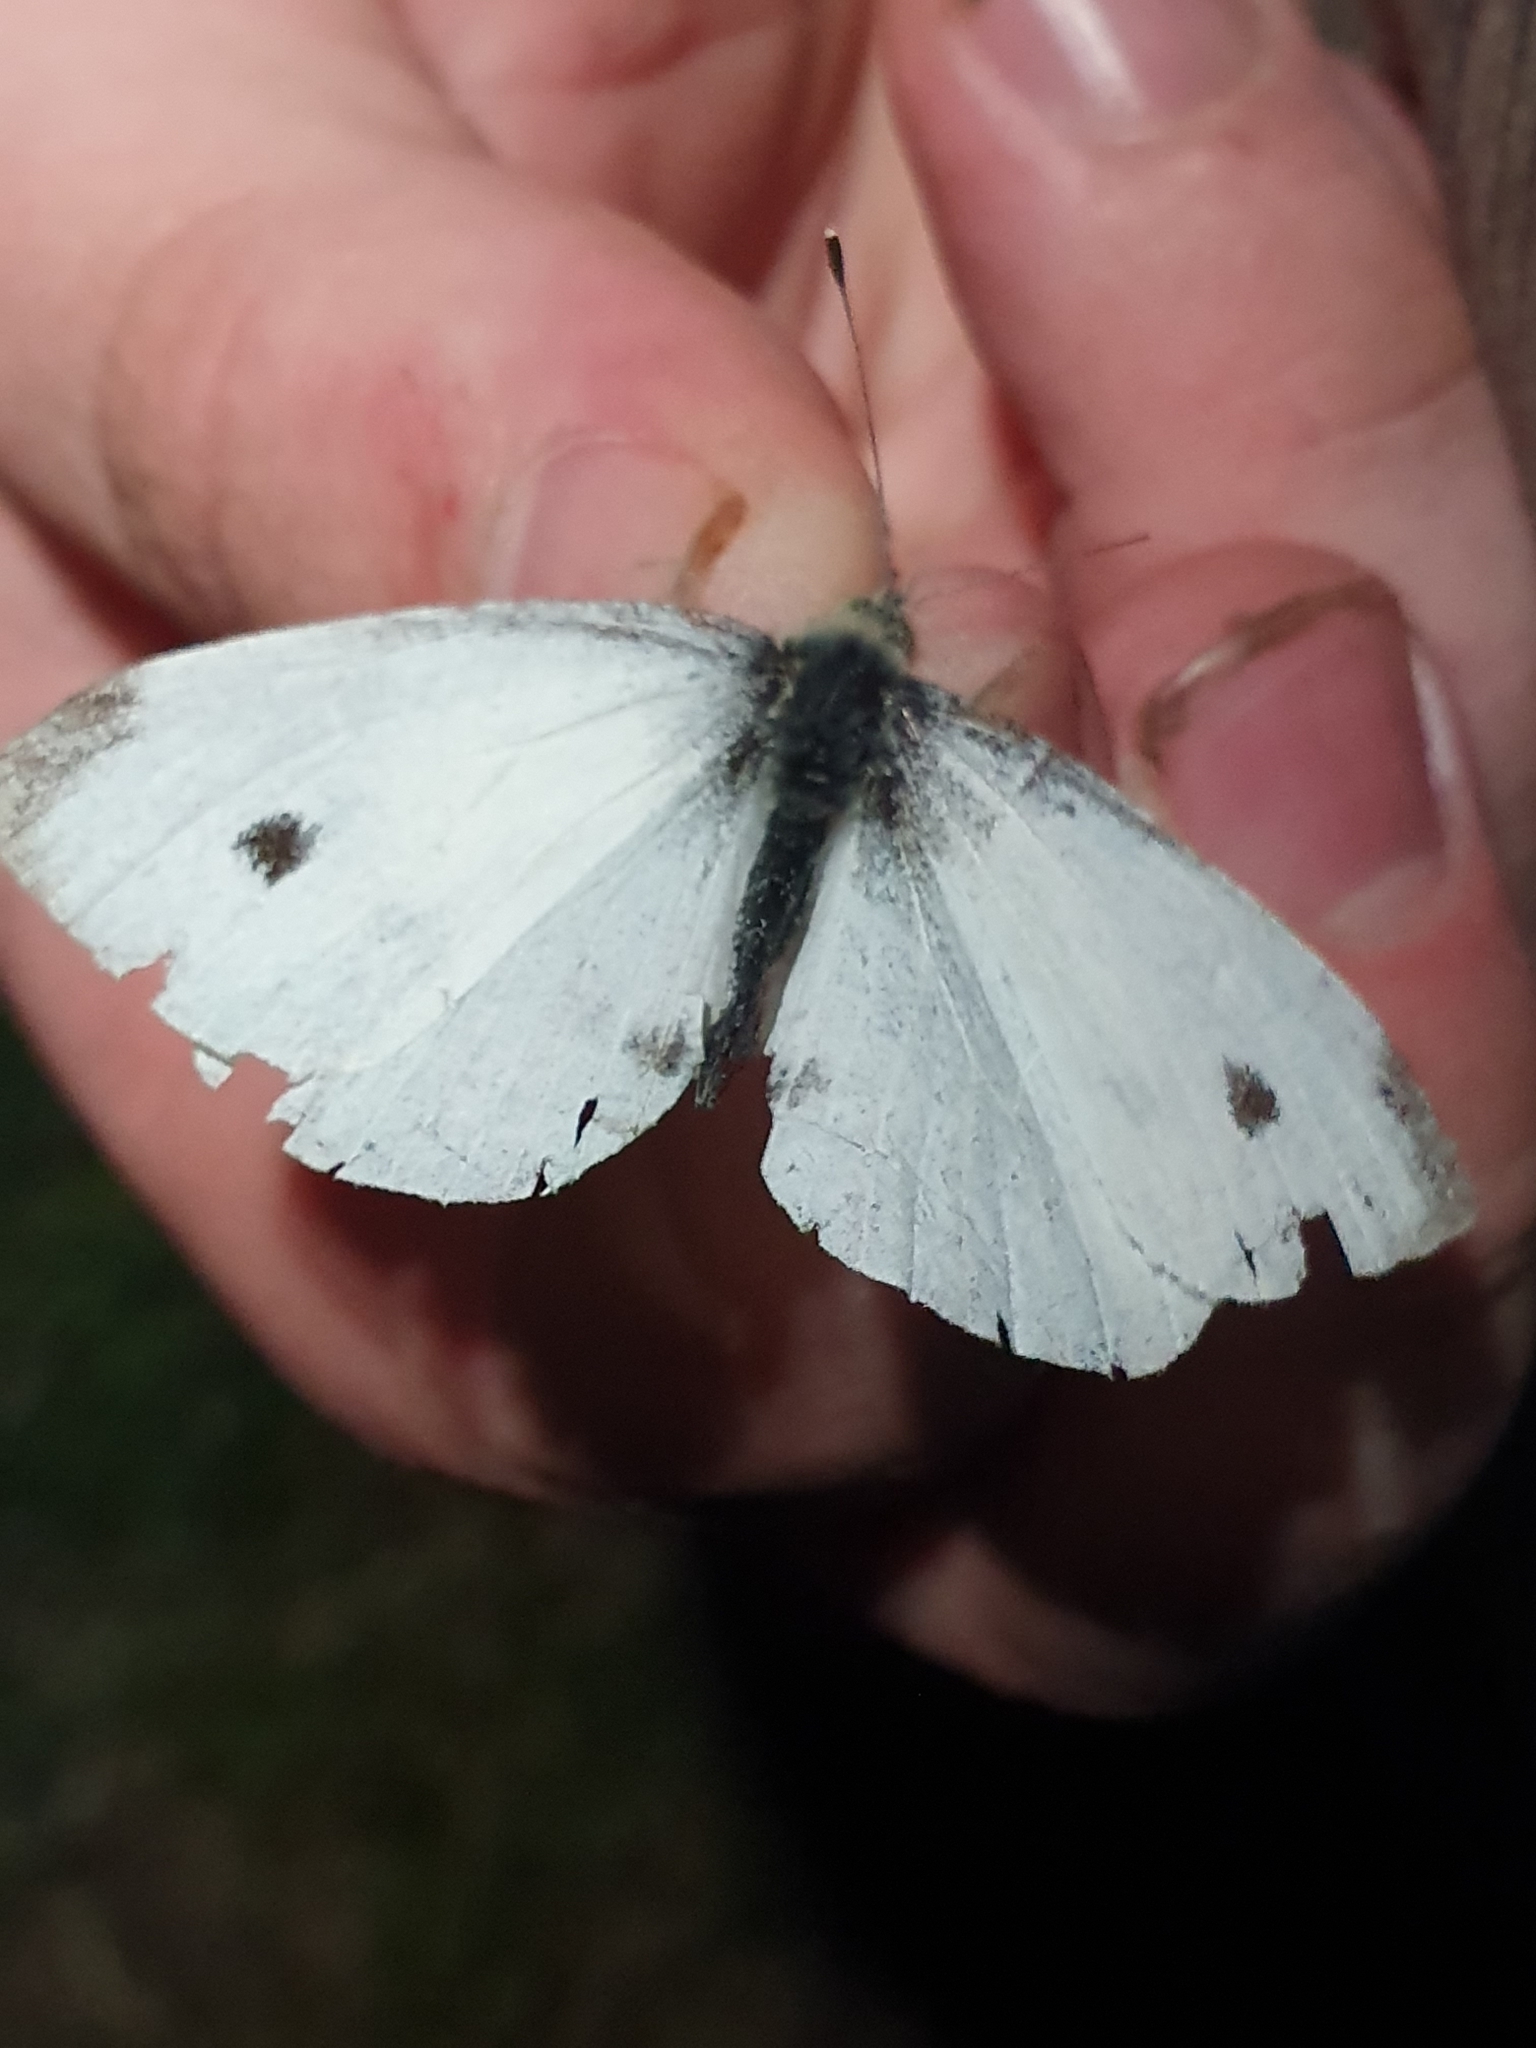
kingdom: Animalia
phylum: Arthropoda
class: Insecta
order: Lepidoptera
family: Pieridae
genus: Pieris
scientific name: Pieris rapae
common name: Small white
